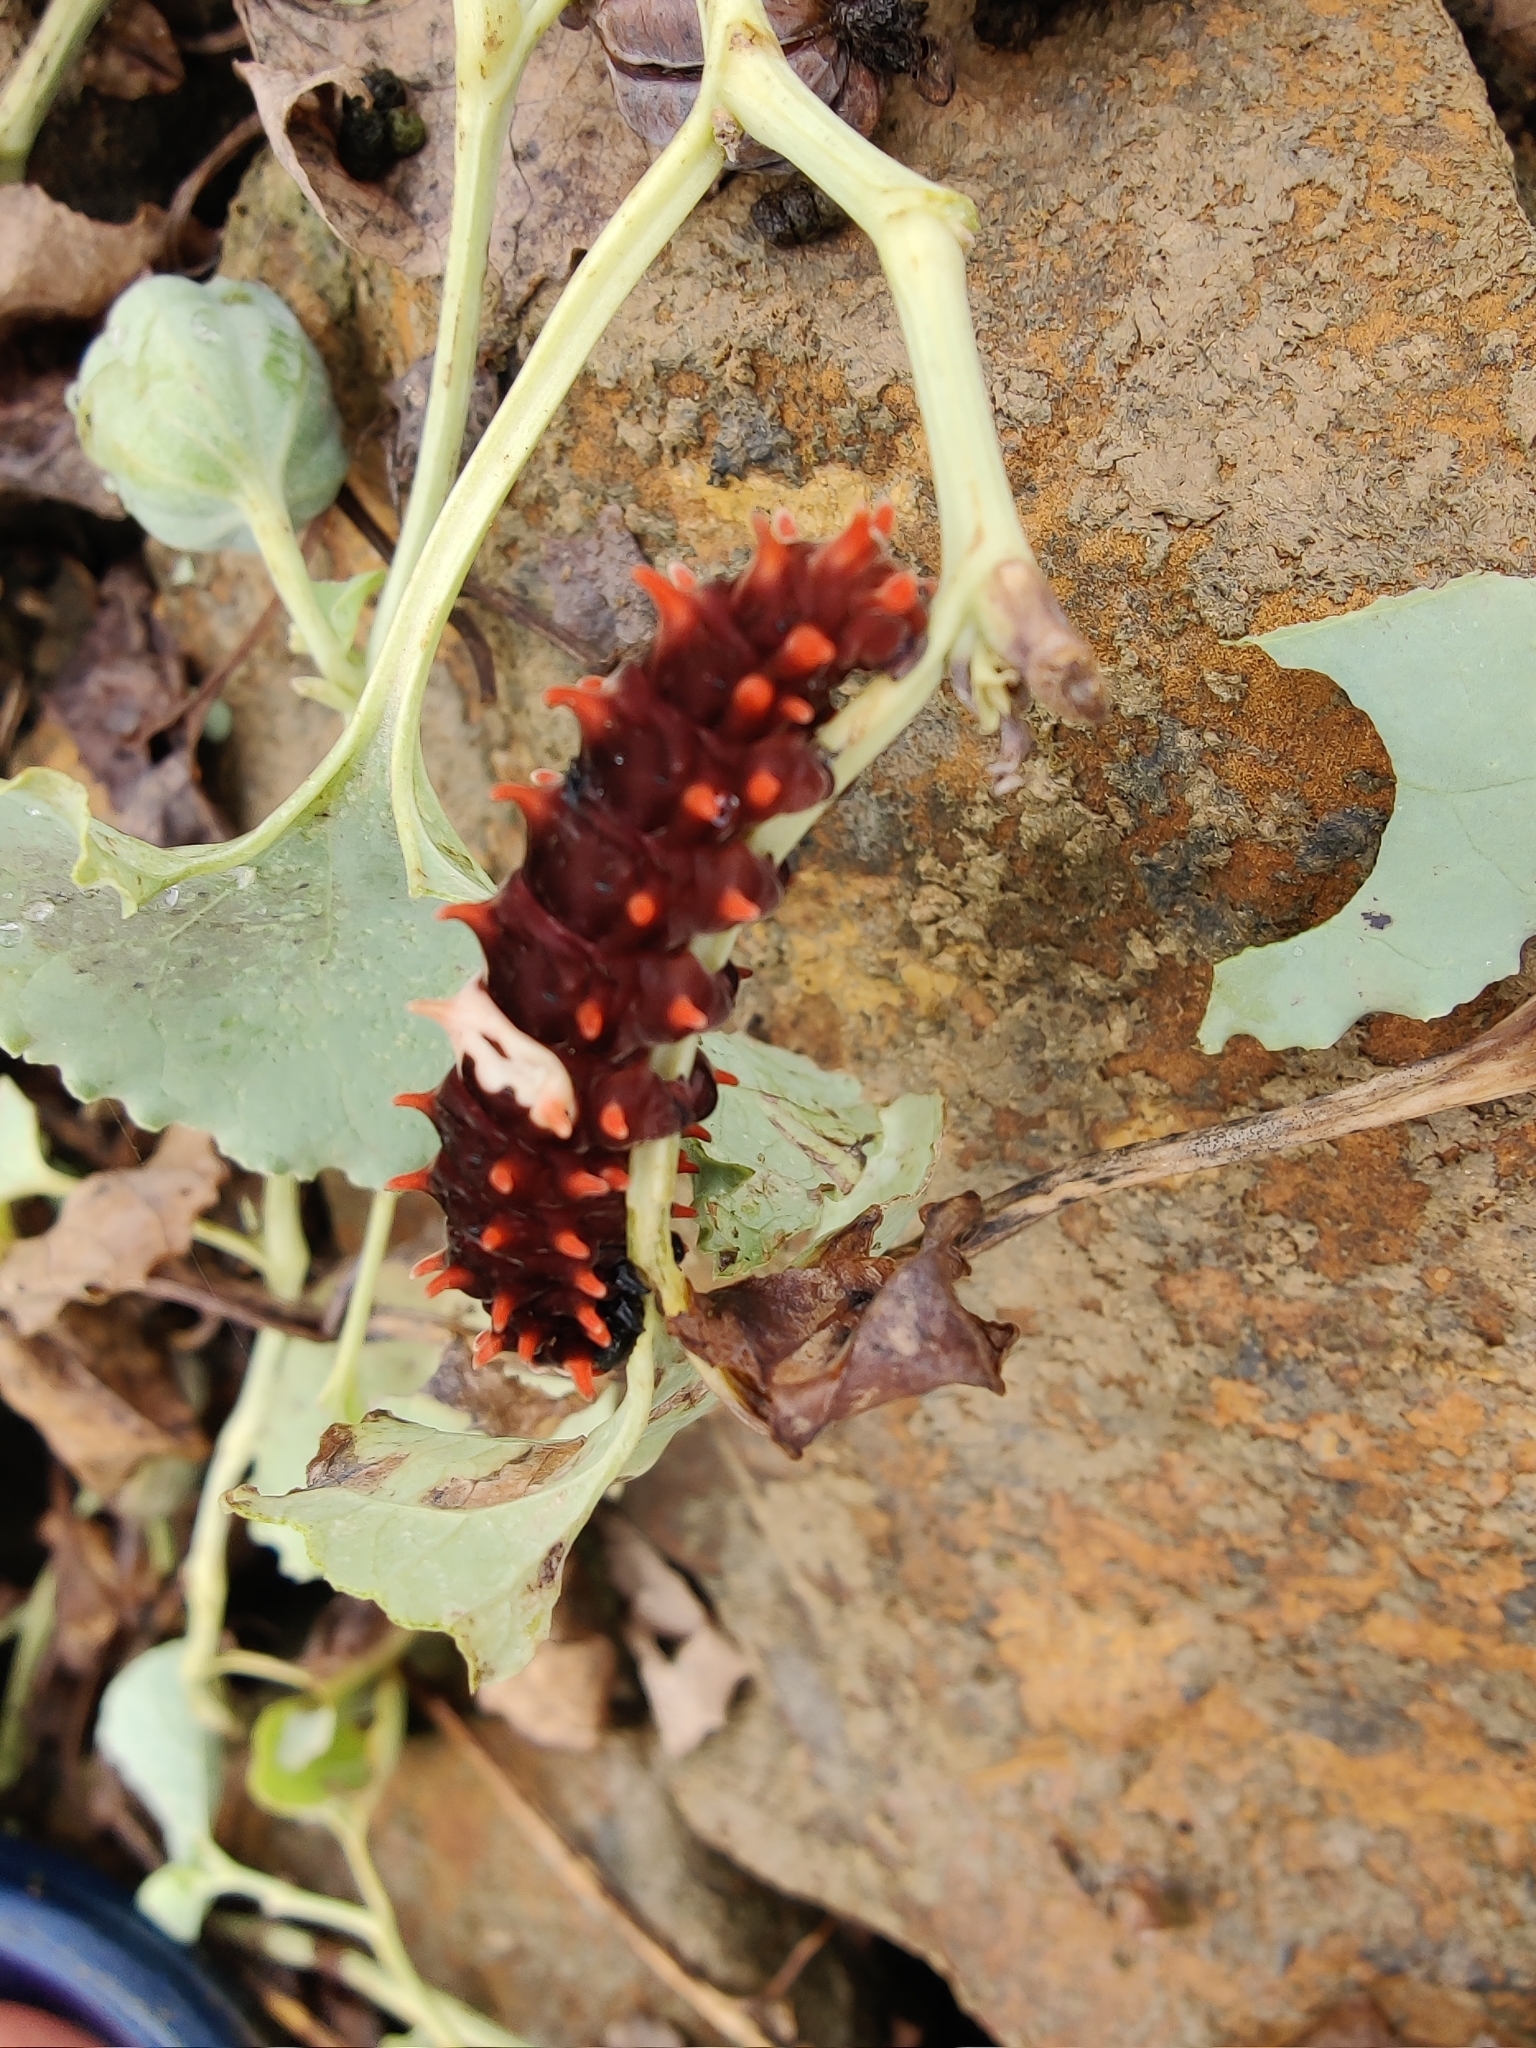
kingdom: Animalia
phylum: Arthropoda
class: Insecta
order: Lepidoptera
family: Papilionidae
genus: Pachliopta
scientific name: Pachliopta aristolochiae
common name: Common rose
